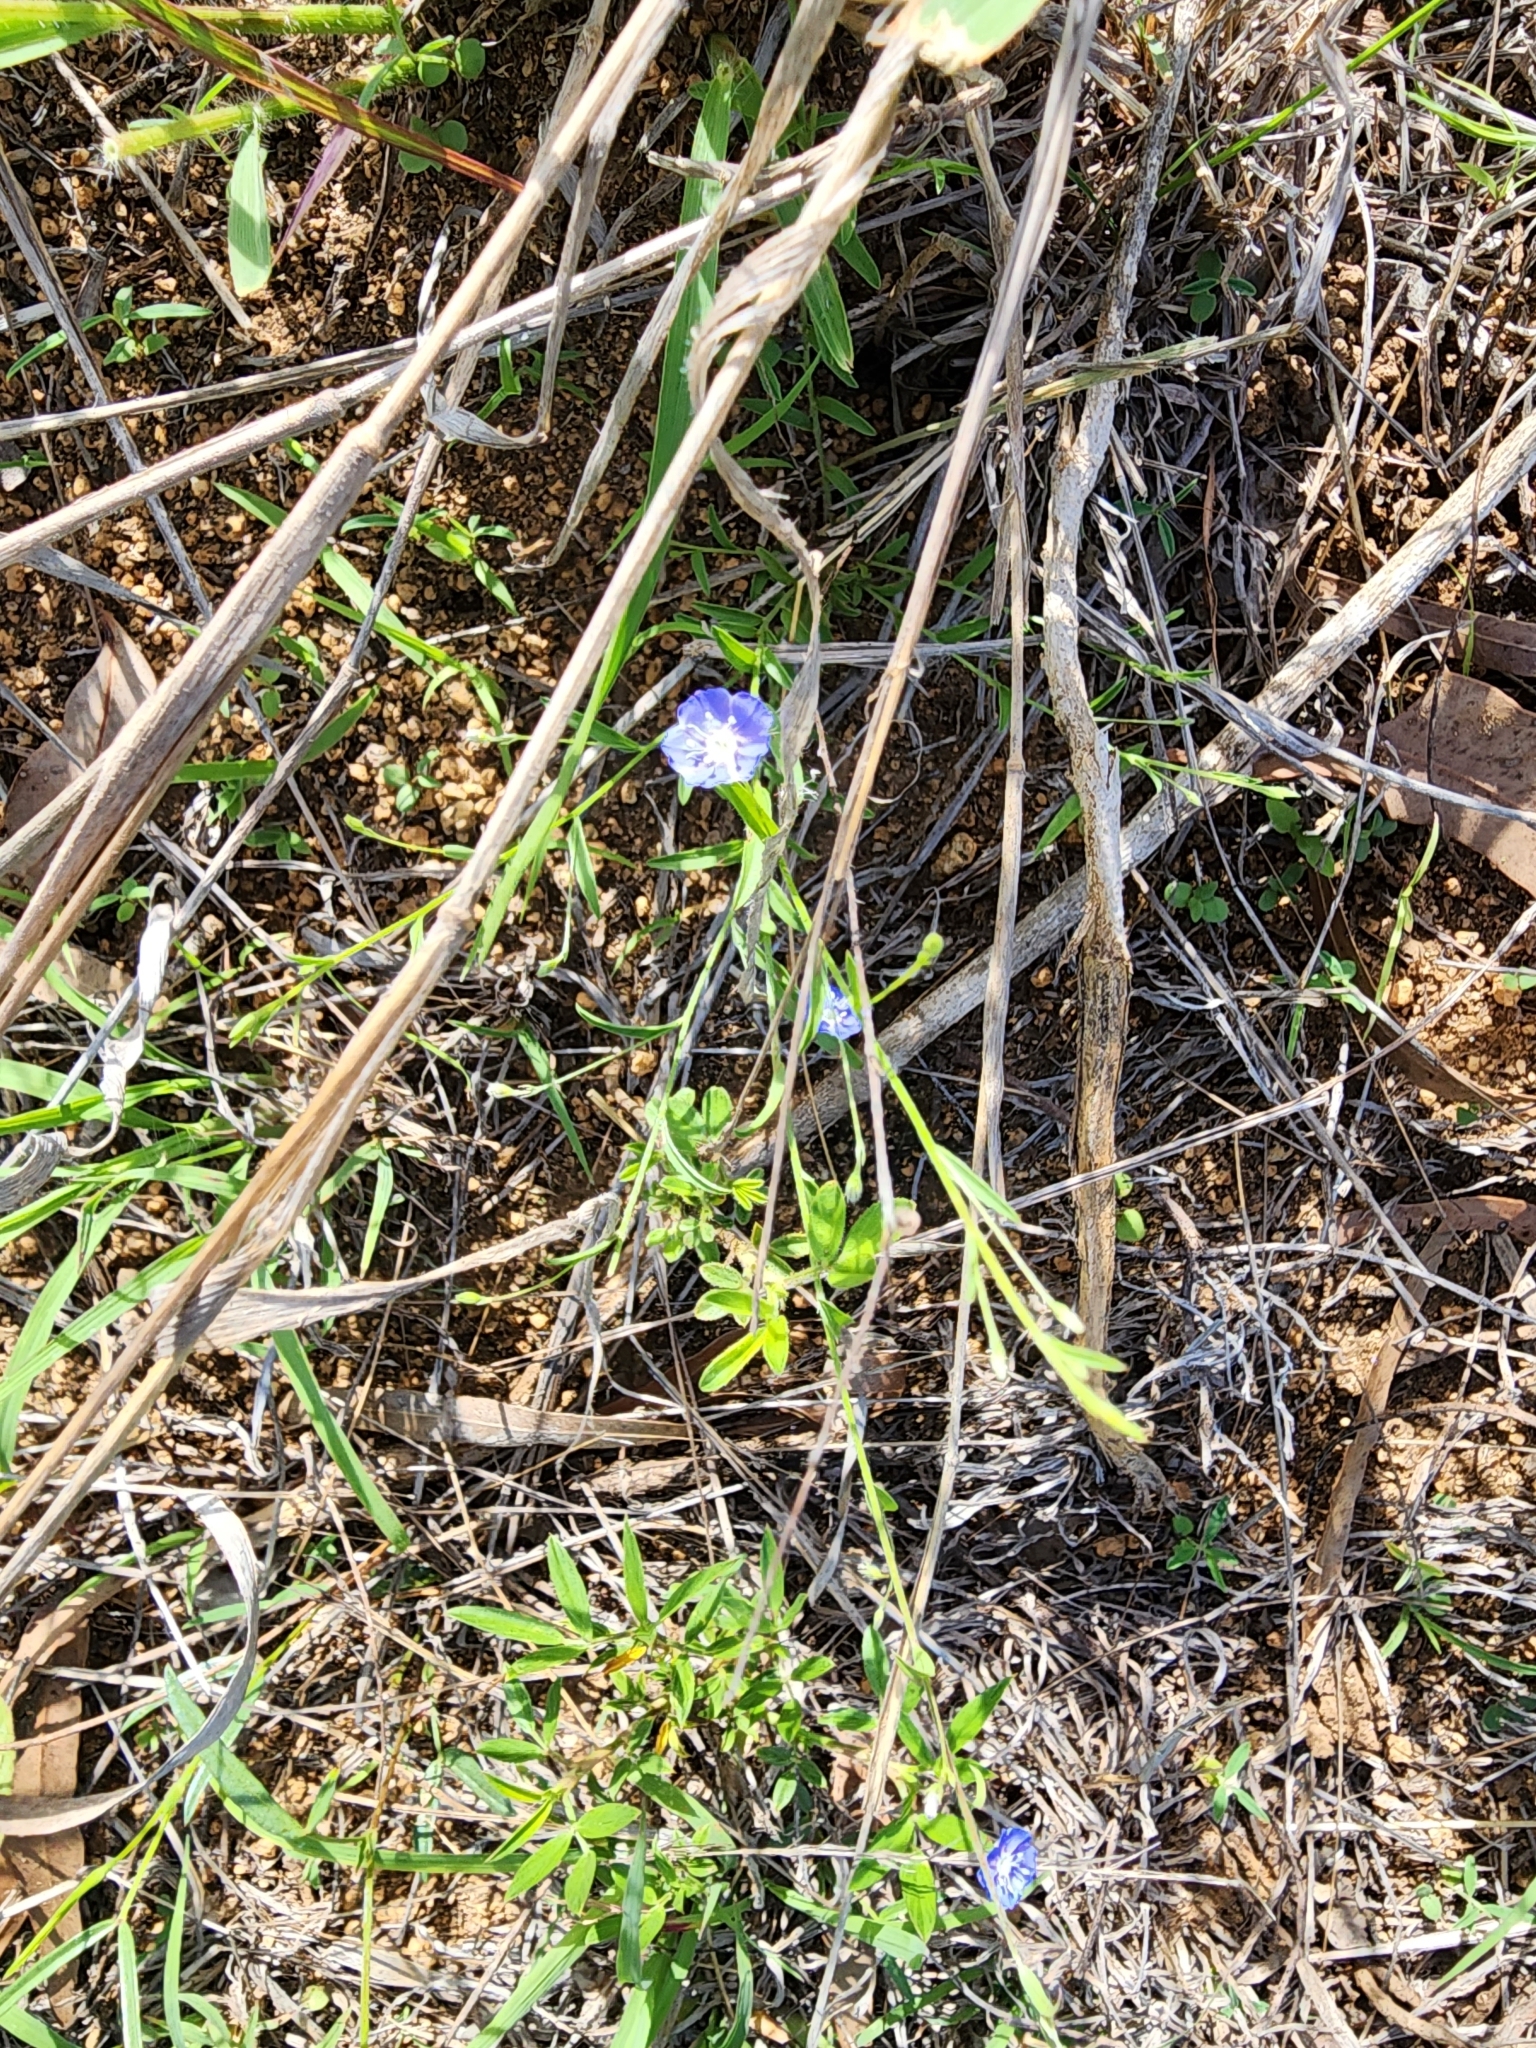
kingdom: Plantae
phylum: Tracheophyta
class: Magnoliopsida
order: Solanales
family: Convolvulaceae
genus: Evolvulus
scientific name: Evolvulus alsinoides
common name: Slender dwarf morning-glory
